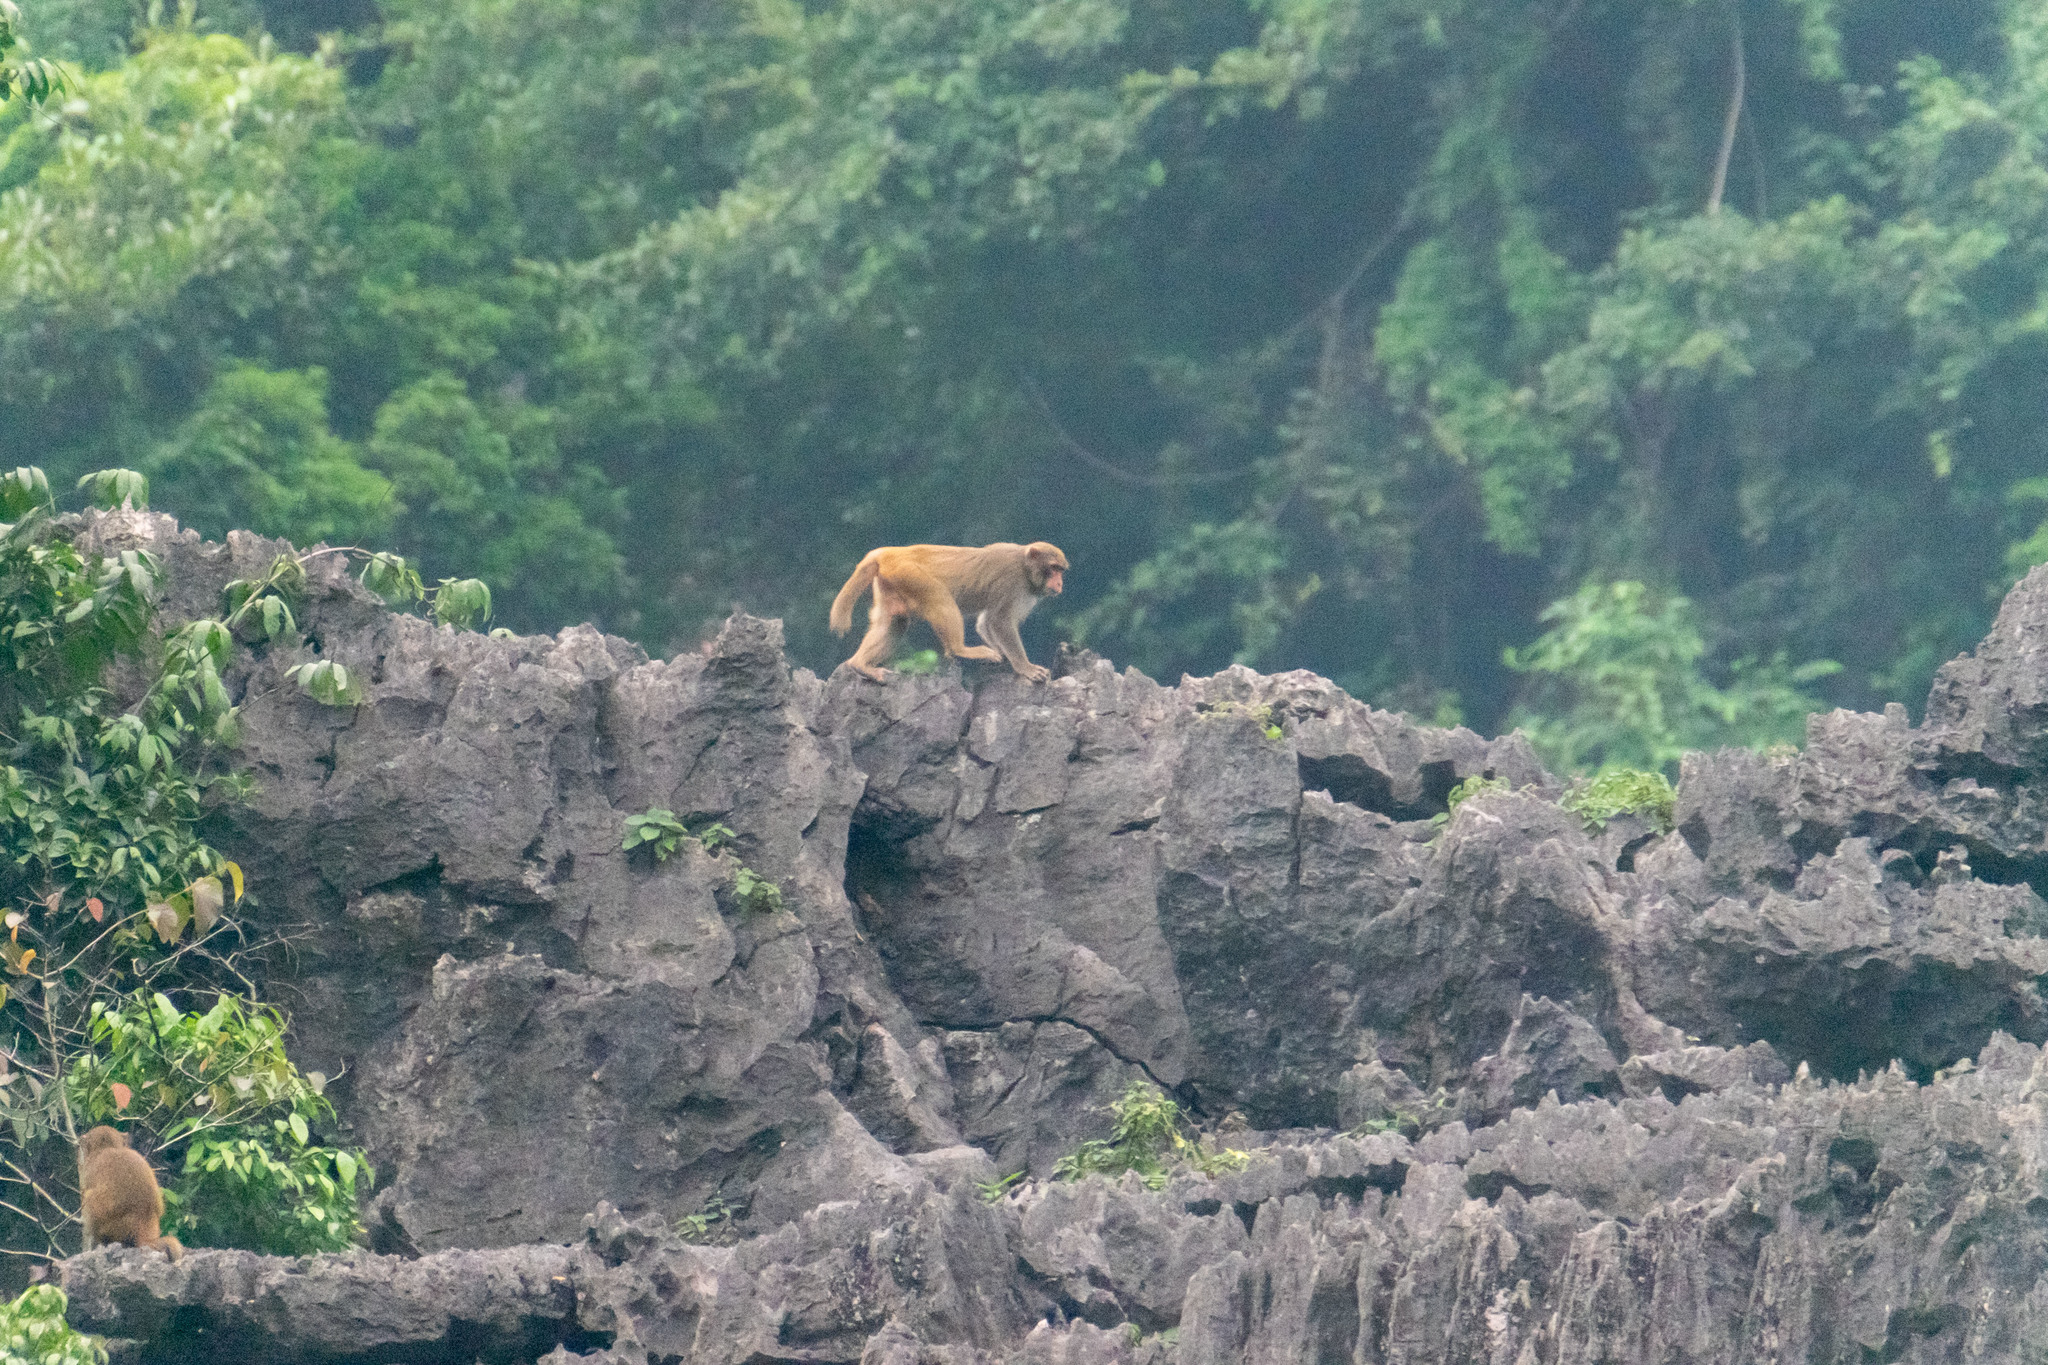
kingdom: Animalia
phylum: Chordata
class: Mammalia
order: Primates
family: Cercopithecidae
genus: Macaca
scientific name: Macaca mulatta
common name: Rhesus monkey
